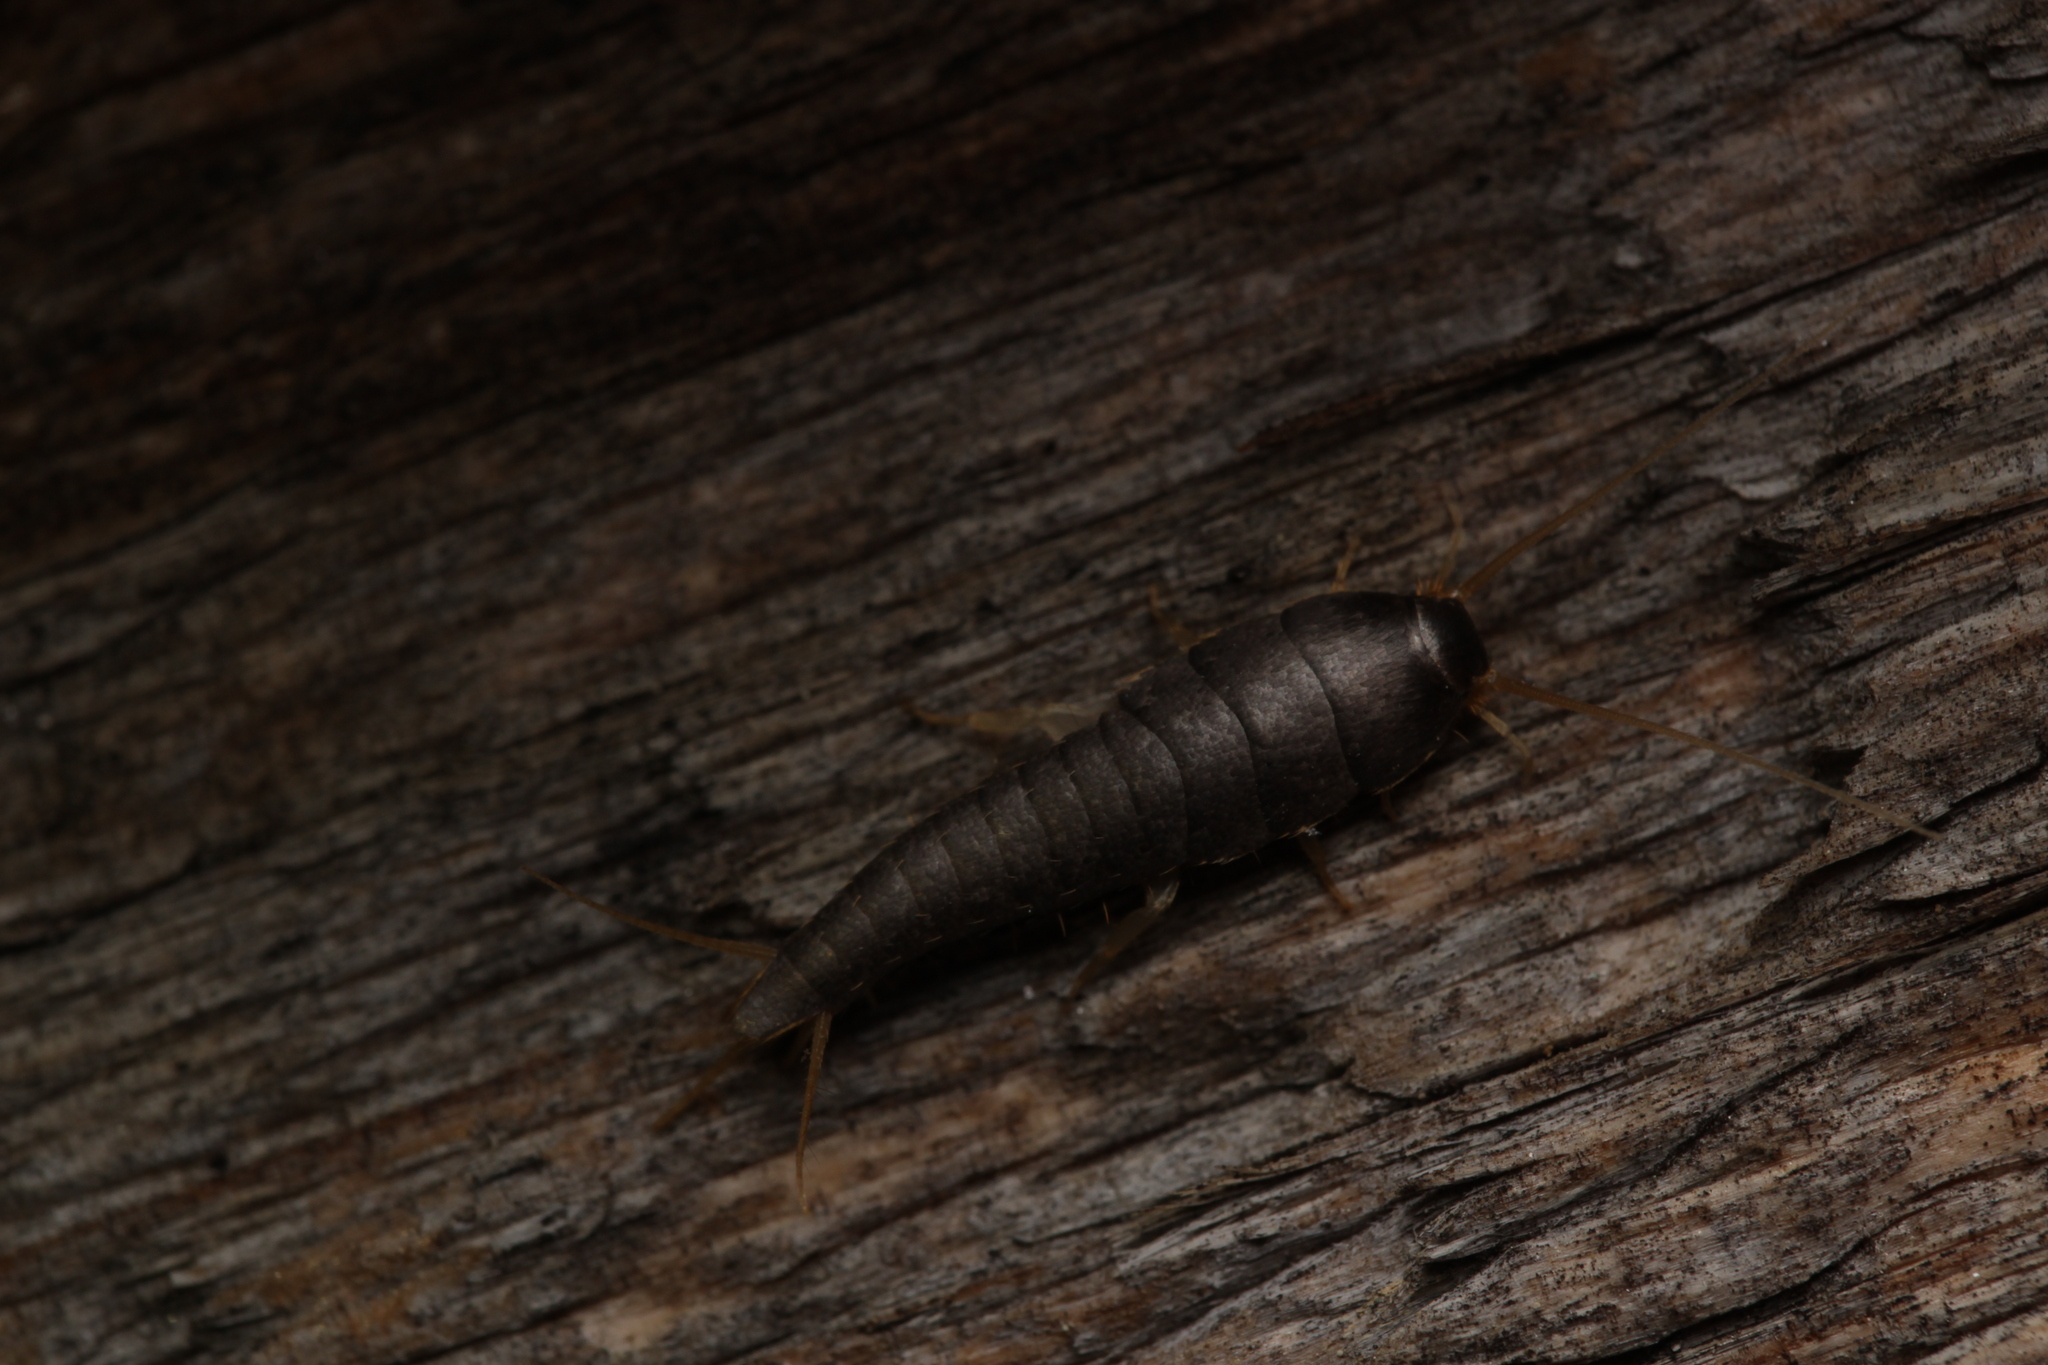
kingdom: Animalia
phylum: Arthropoda
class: Insecta
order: Zygentoma
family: Lepismatidae
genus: Lepisma
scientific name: Lepisma saccharinum
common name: Silverfish
